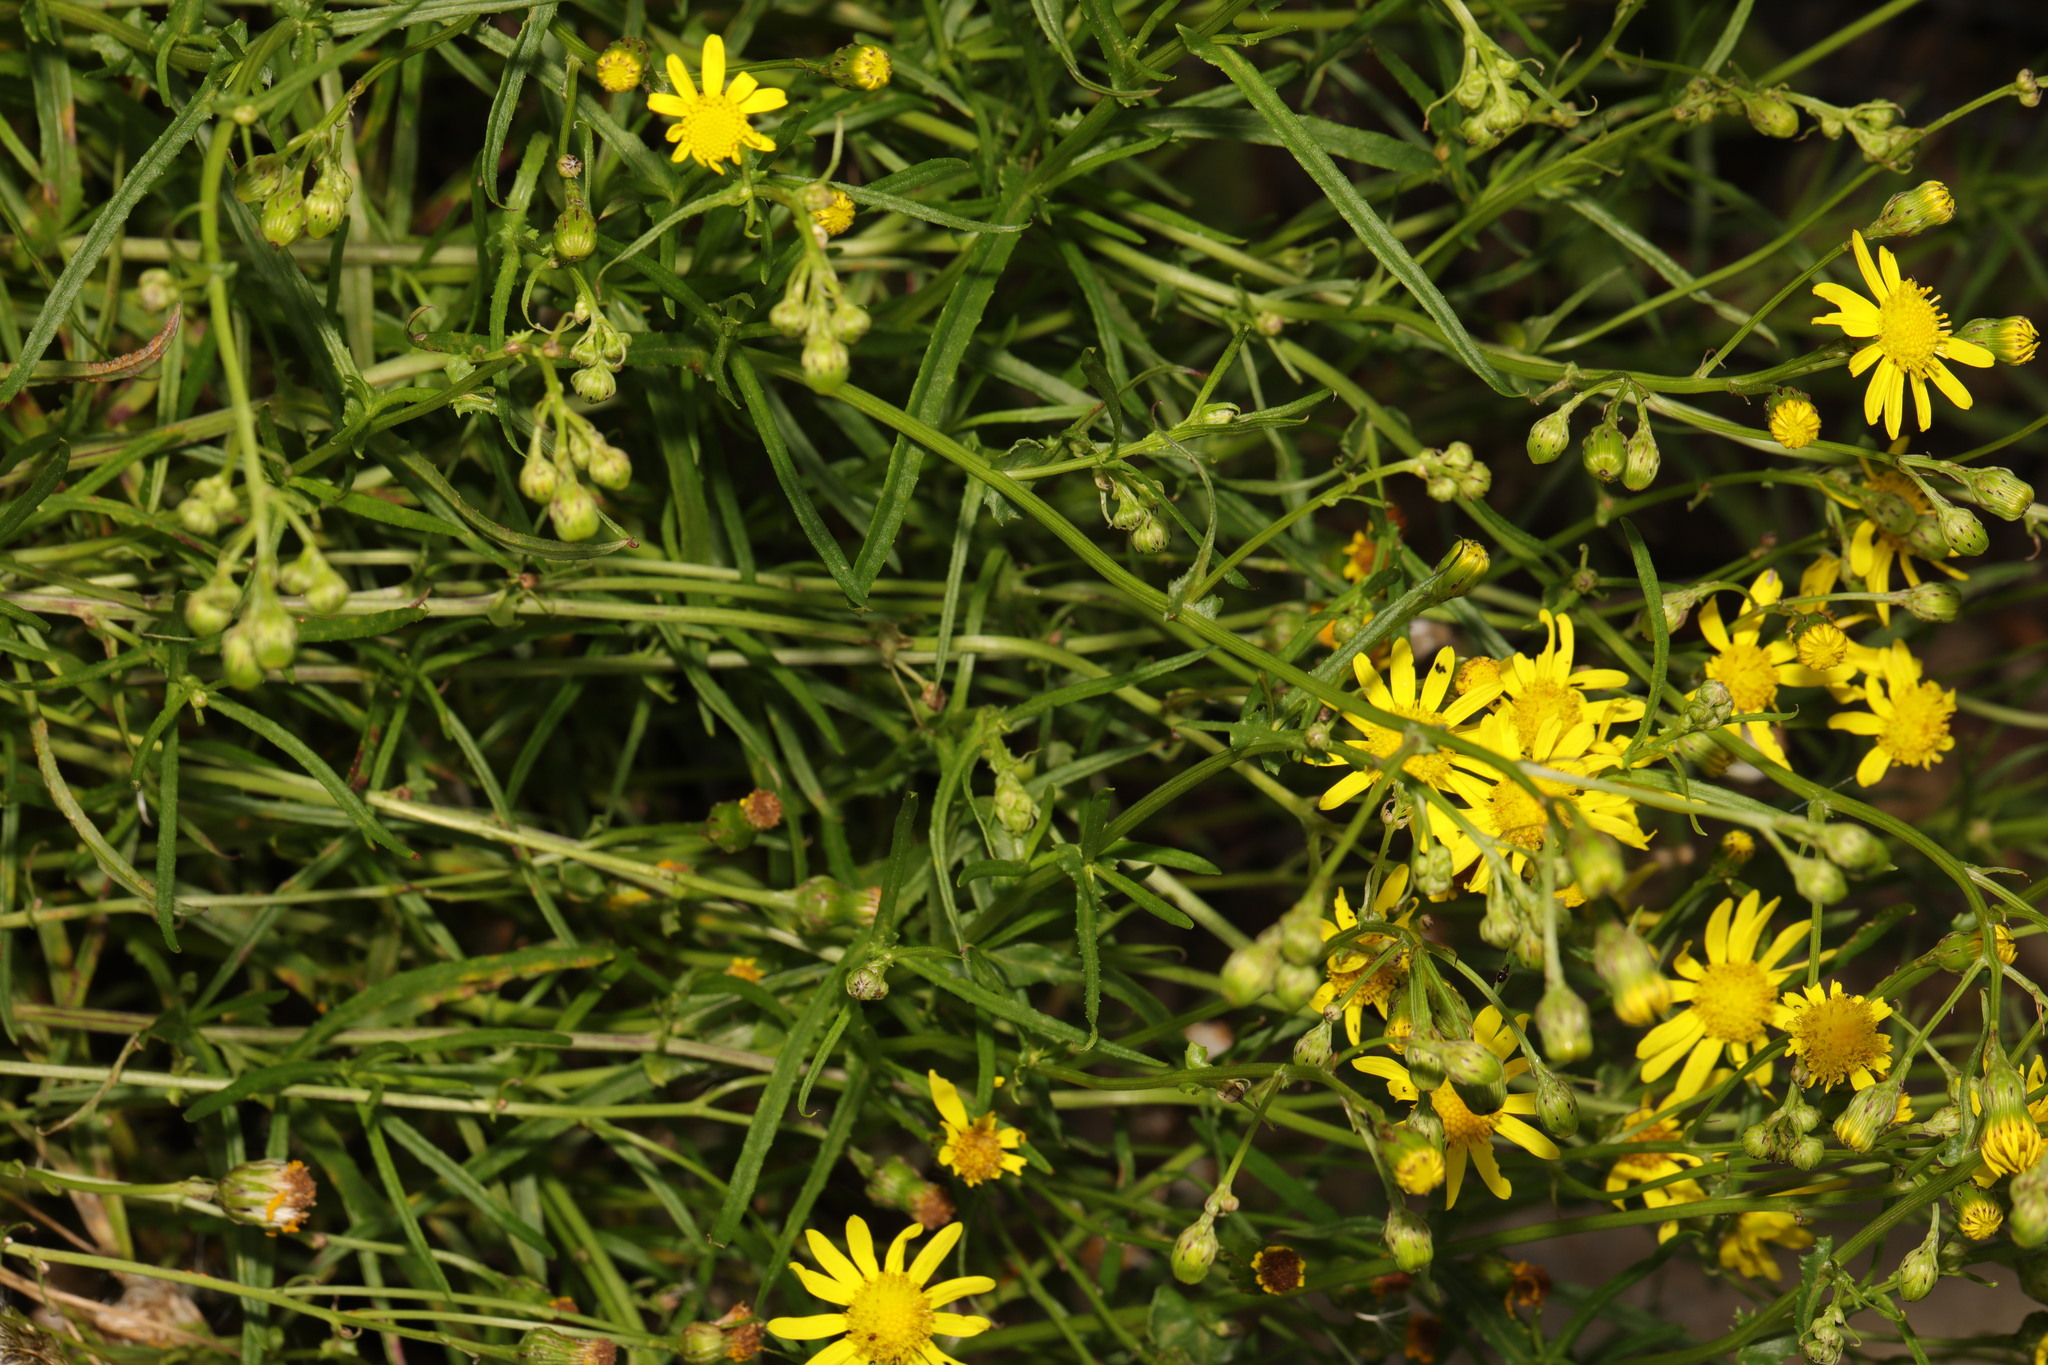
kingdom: Plantae
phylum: Tracheophyta
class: Magnoliopsida
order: Asterales
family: Asteraceae
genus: Senecio
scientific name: Senecio inaequidens
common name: Narrow-leaved ragwort
